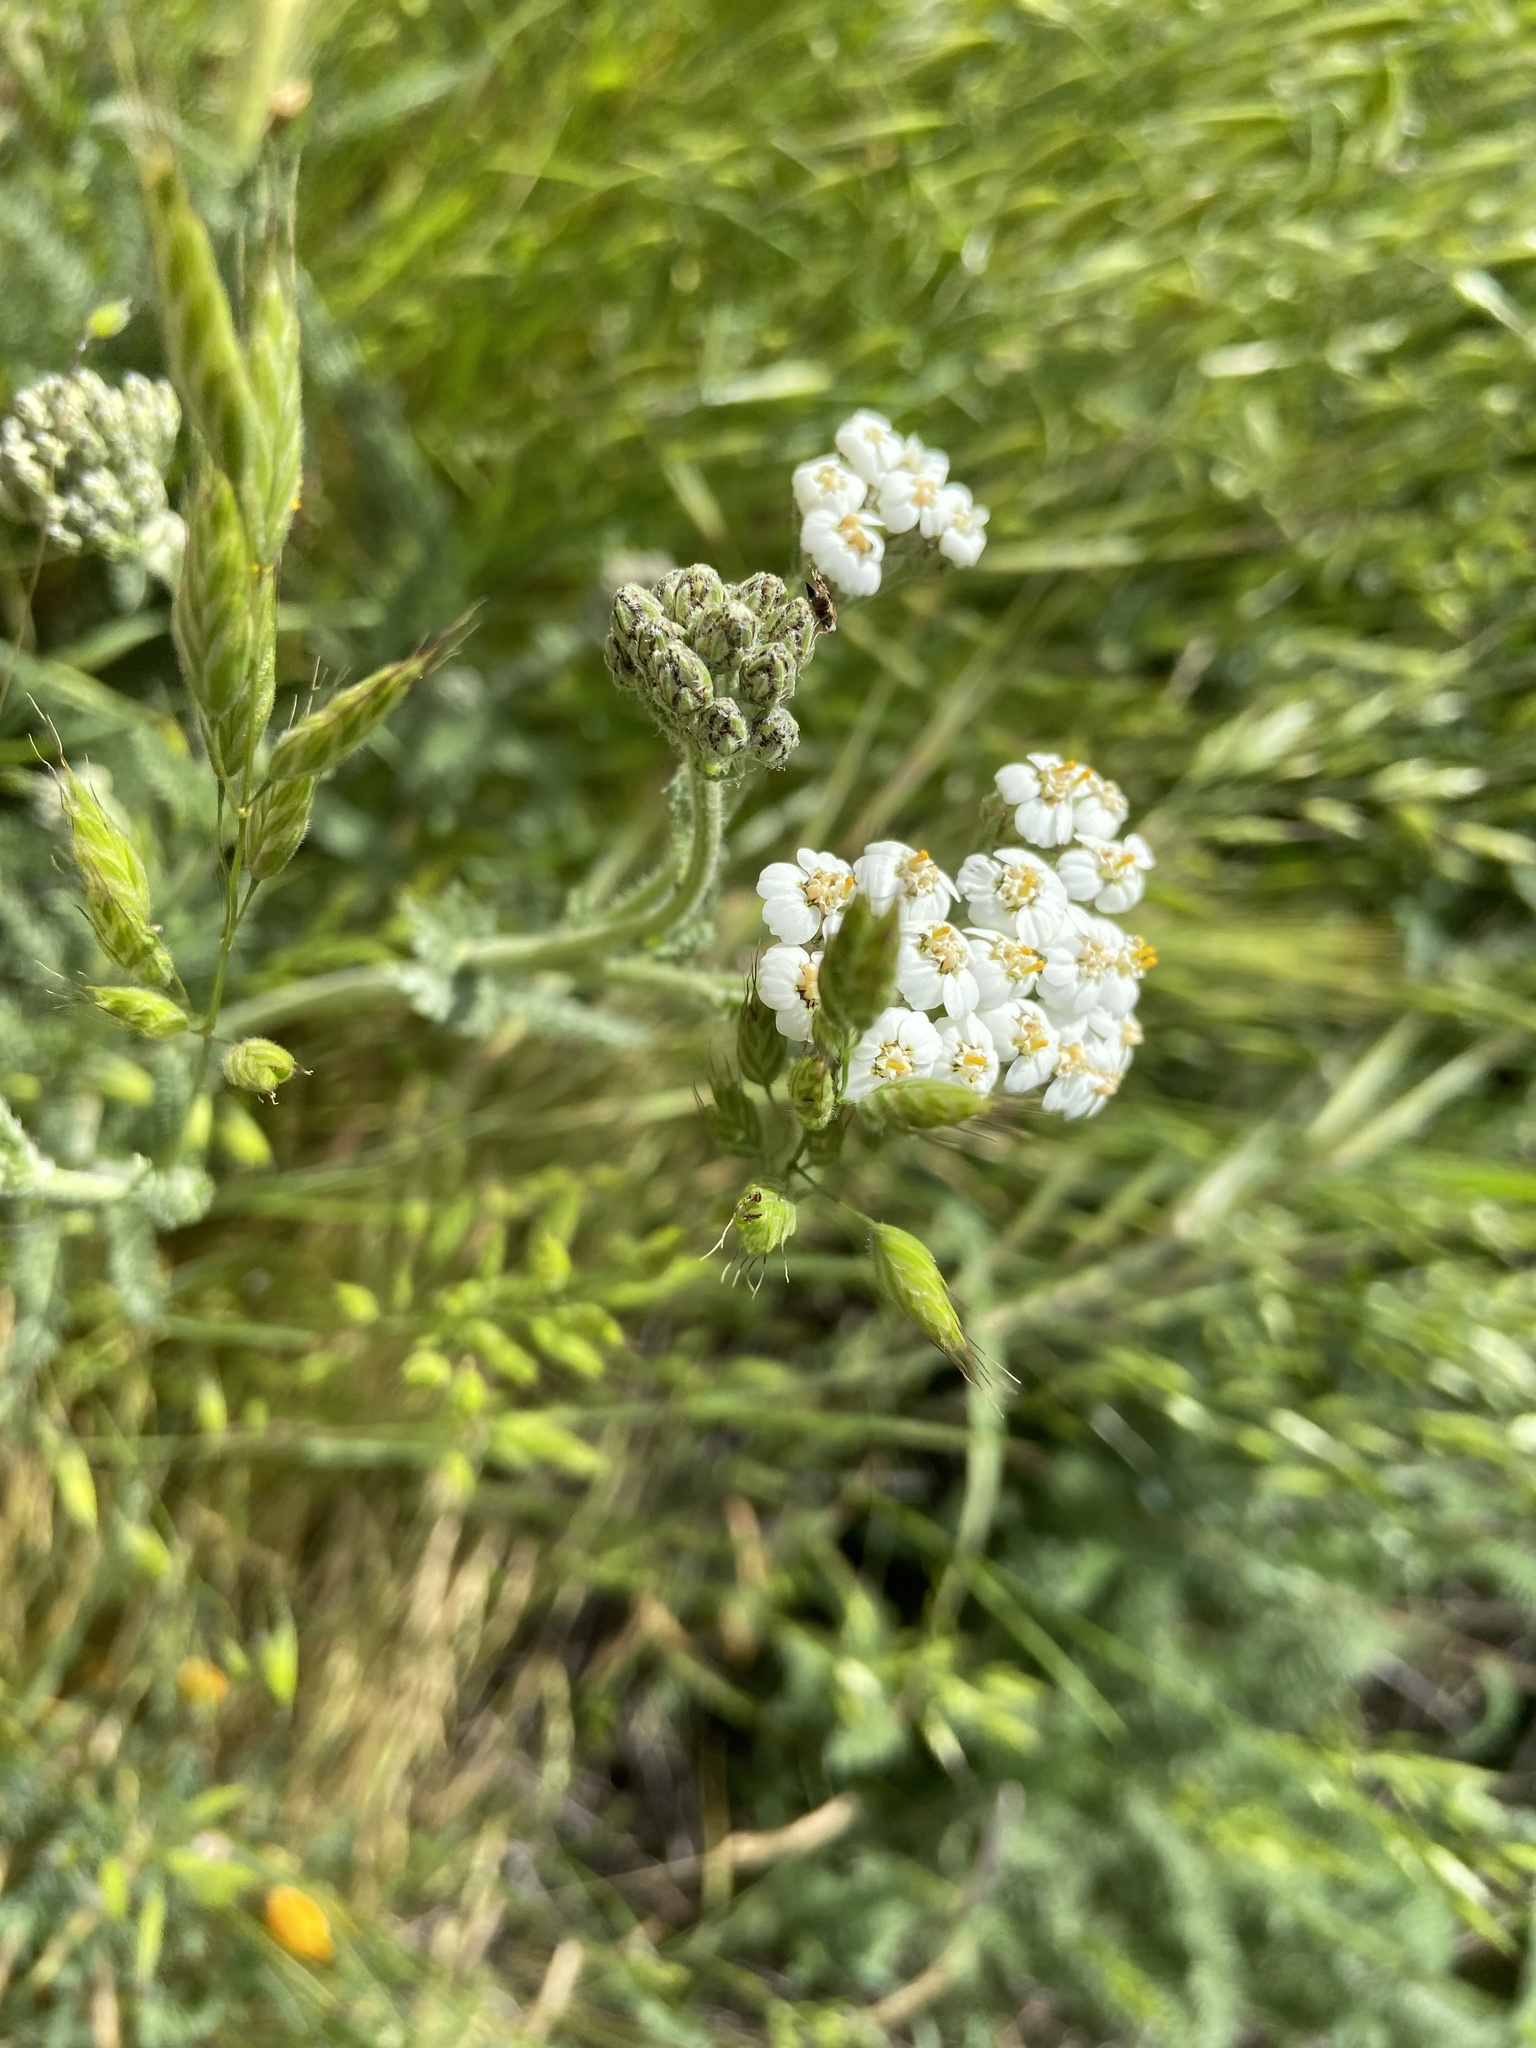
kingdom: Plantae
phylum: Tracheophyta
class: Magnoliopsida
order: Asterales
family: Asteraceae
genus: Achillea
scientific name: Achillea millefolium
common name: Yarrow
